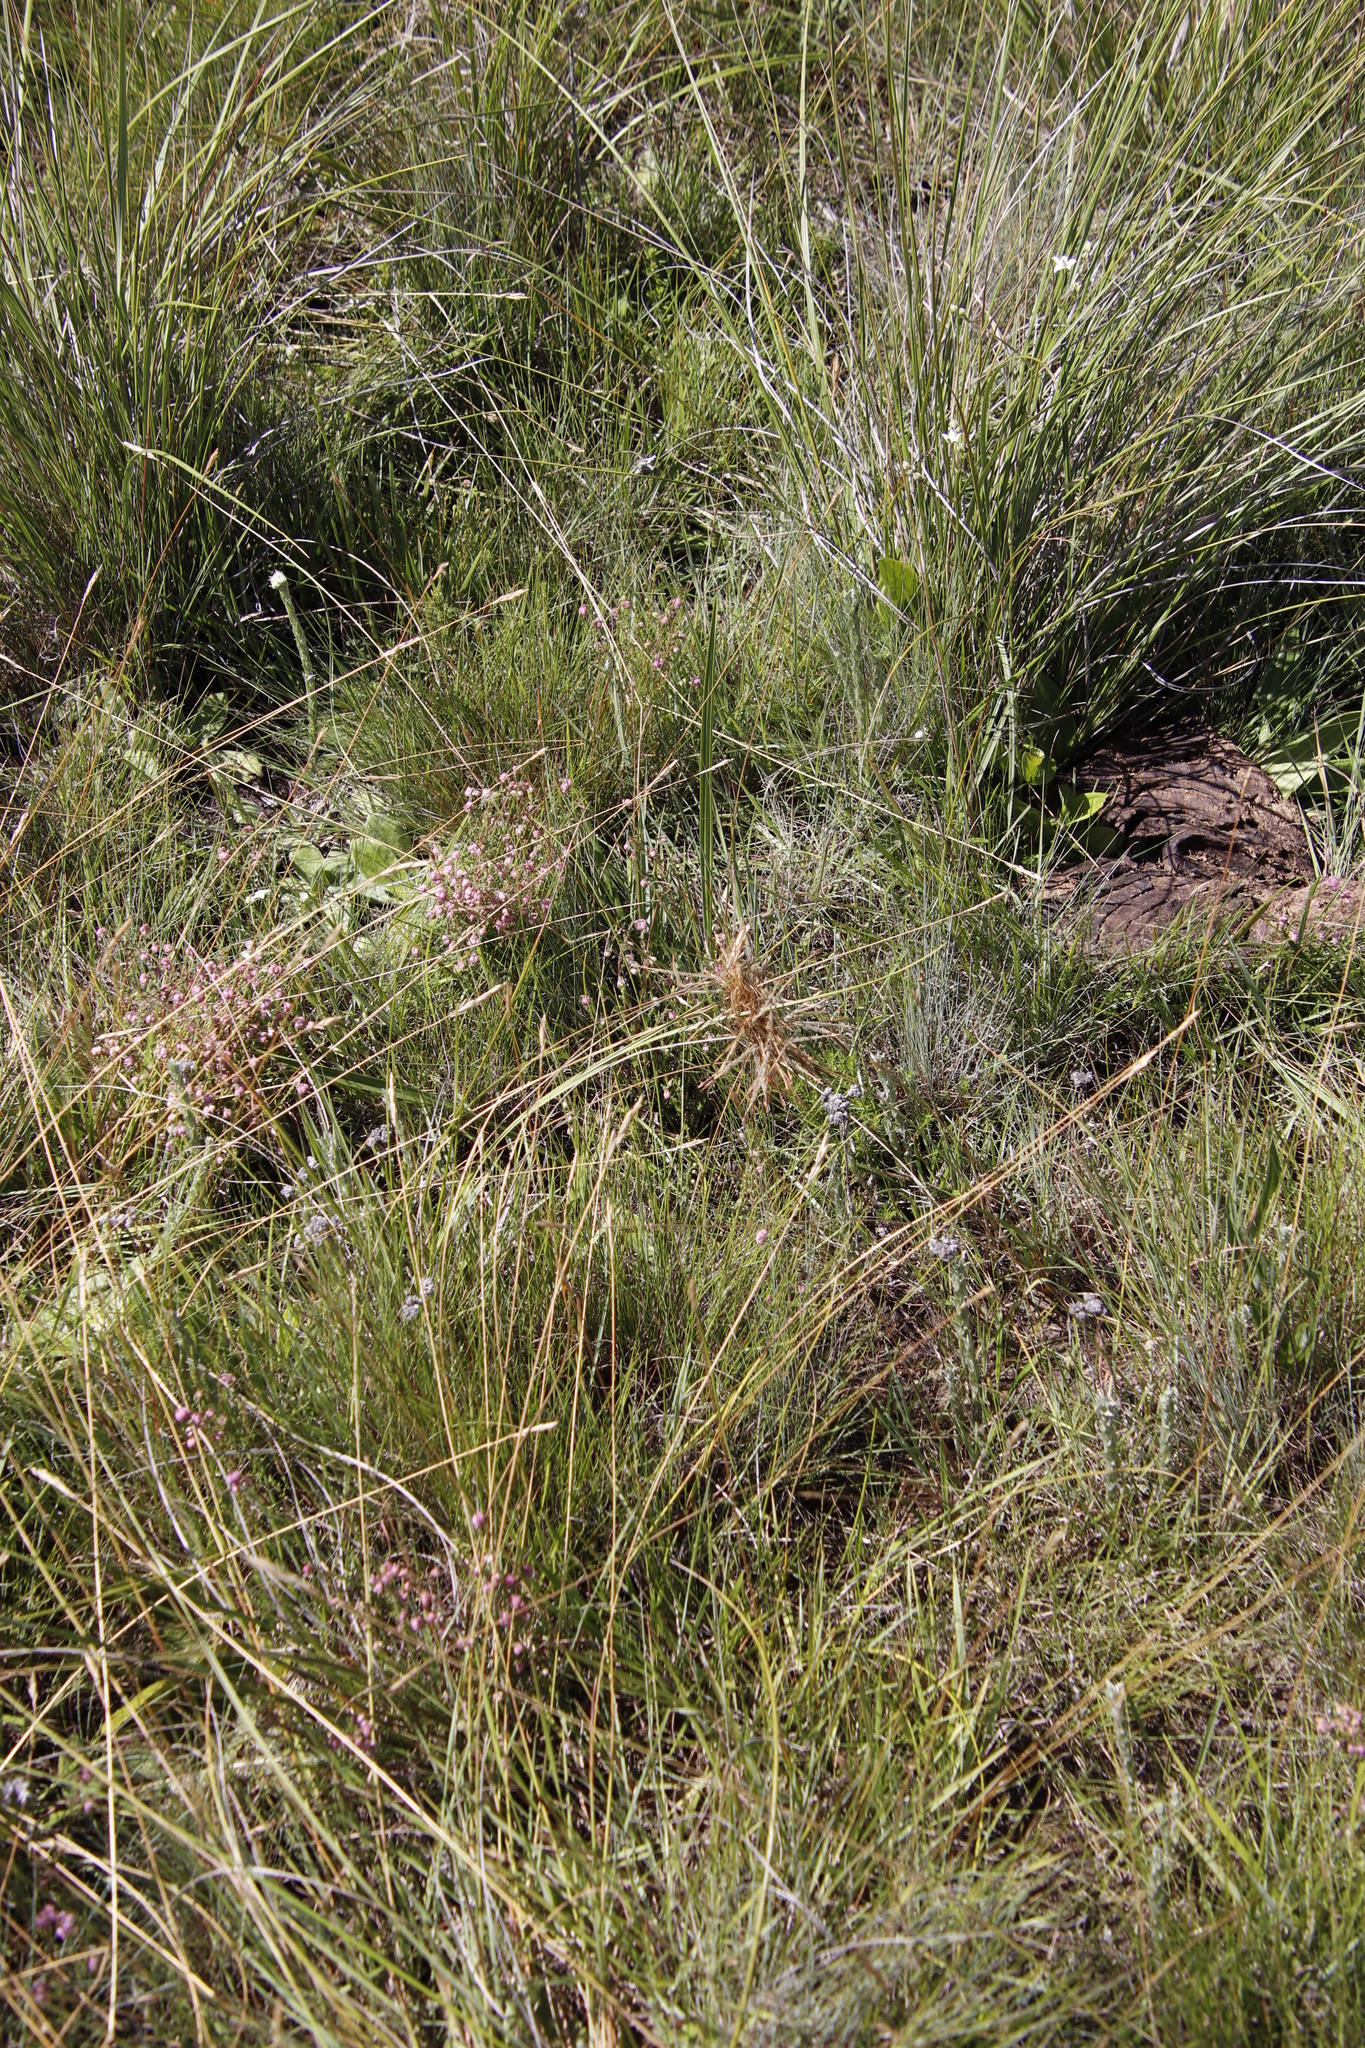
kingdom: Plantae
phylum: Tracheophyta
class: Liliopsida
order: Poales
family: Poaceae
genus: Heteropogon
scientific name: Heteropogon contortus
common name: Tanglehead
